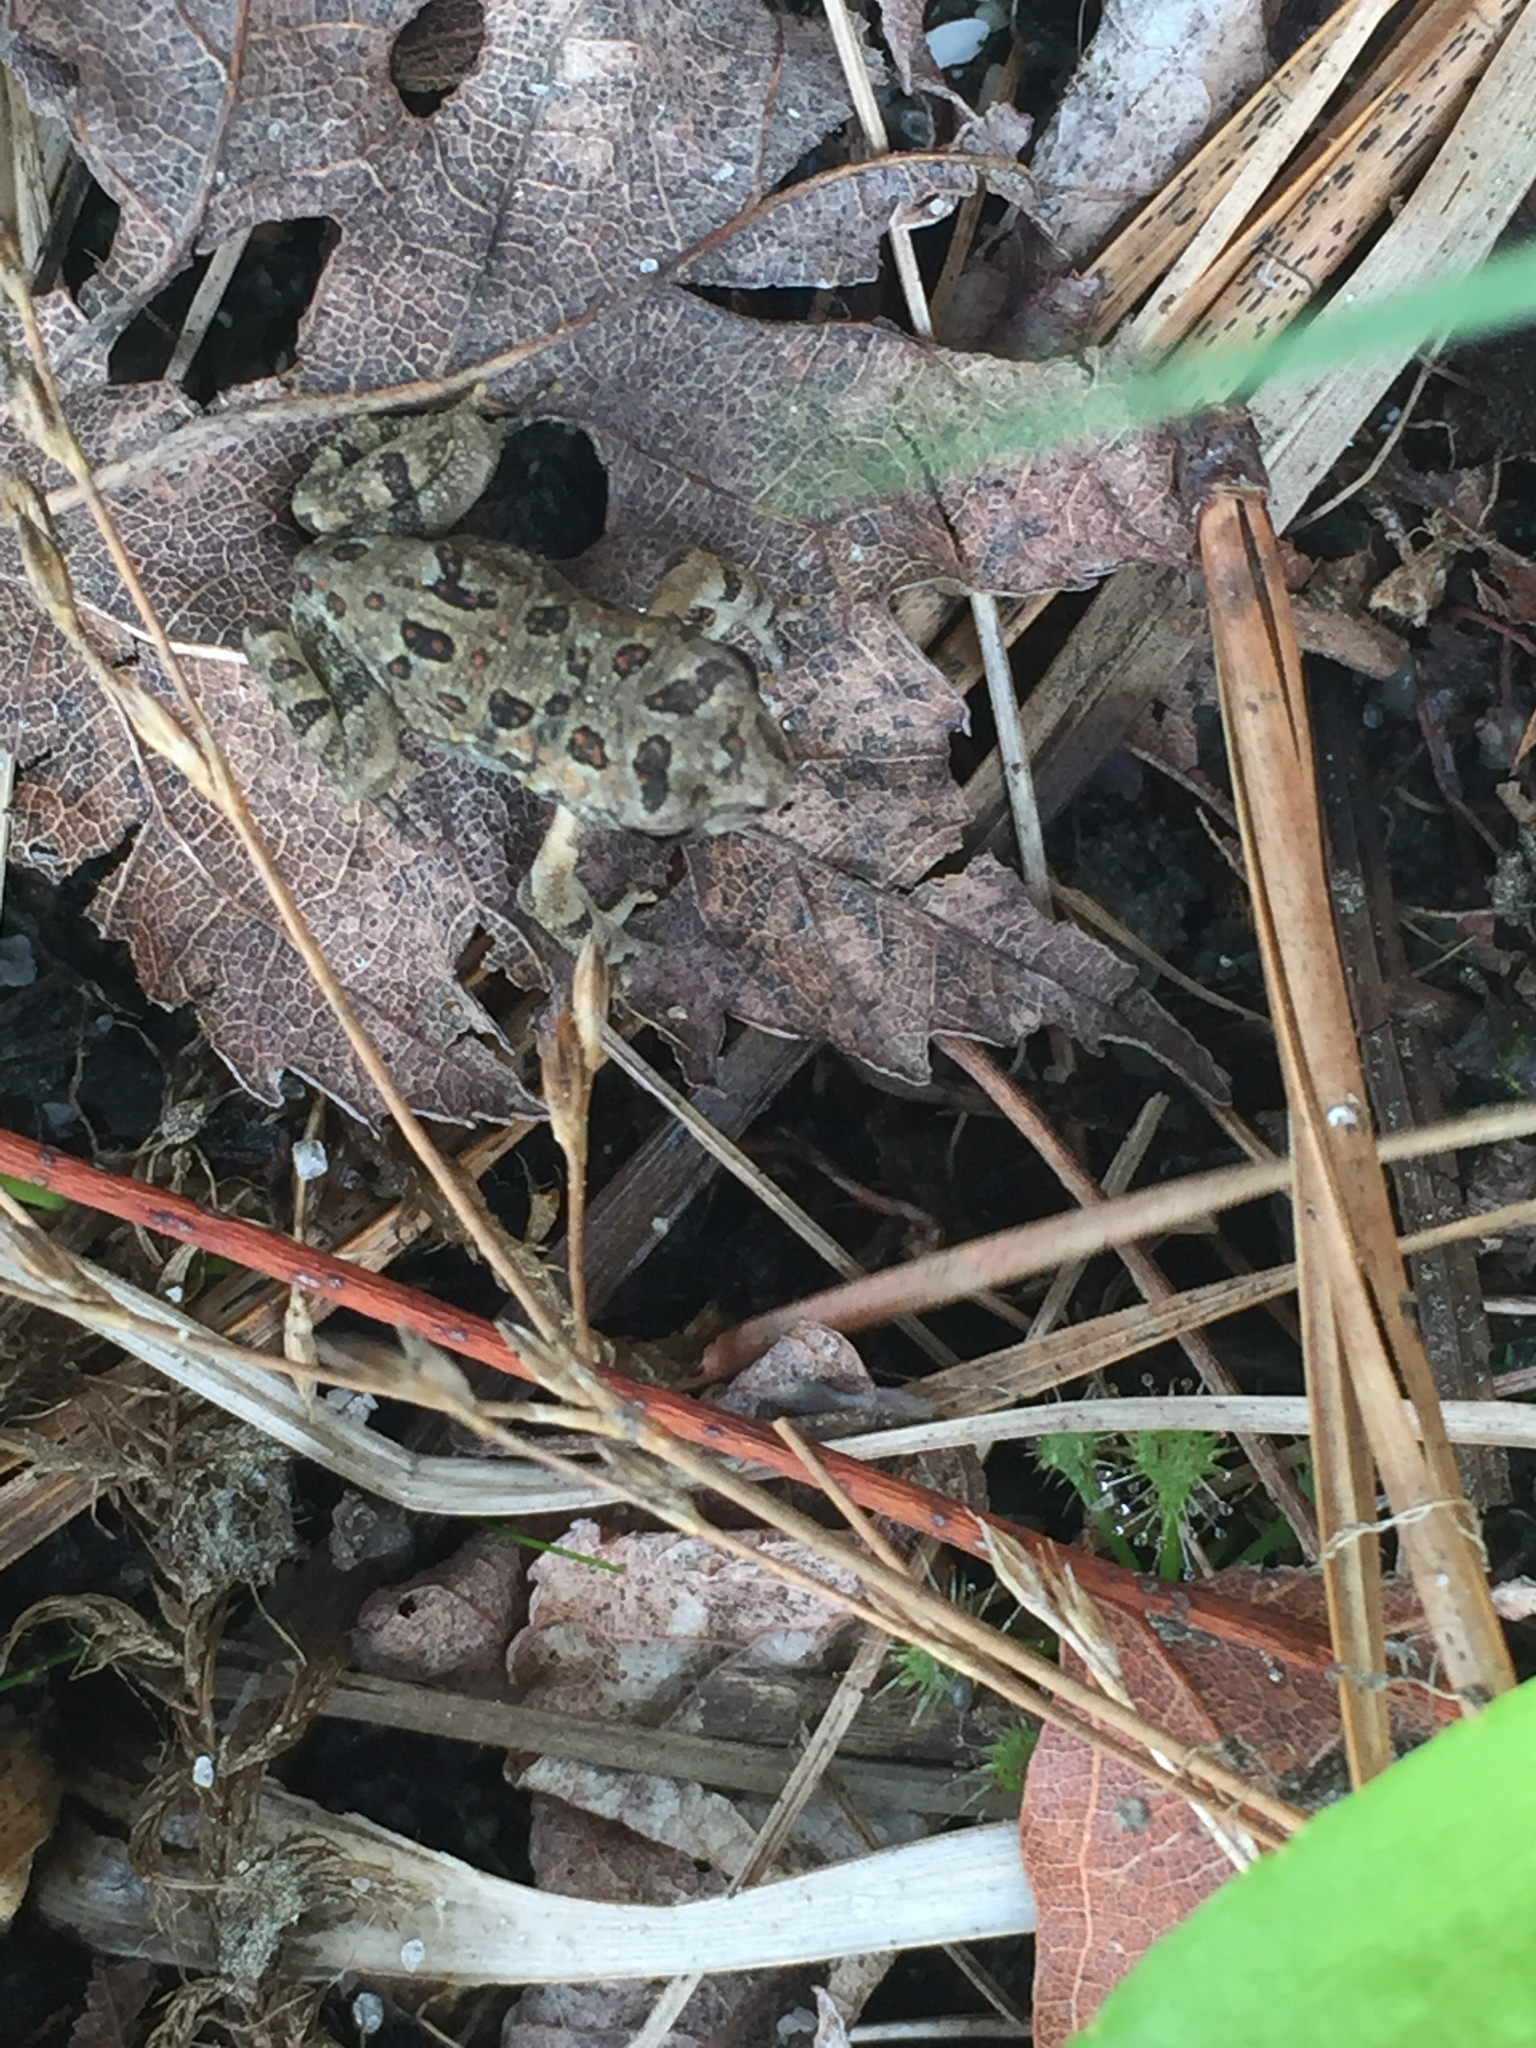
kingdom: Animalia
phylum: Chordata
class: Amphibia
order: Anura
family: Bufonidae
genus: Anaxyrus
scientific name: Anaxyrus fowleri
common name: Fowler's toad
